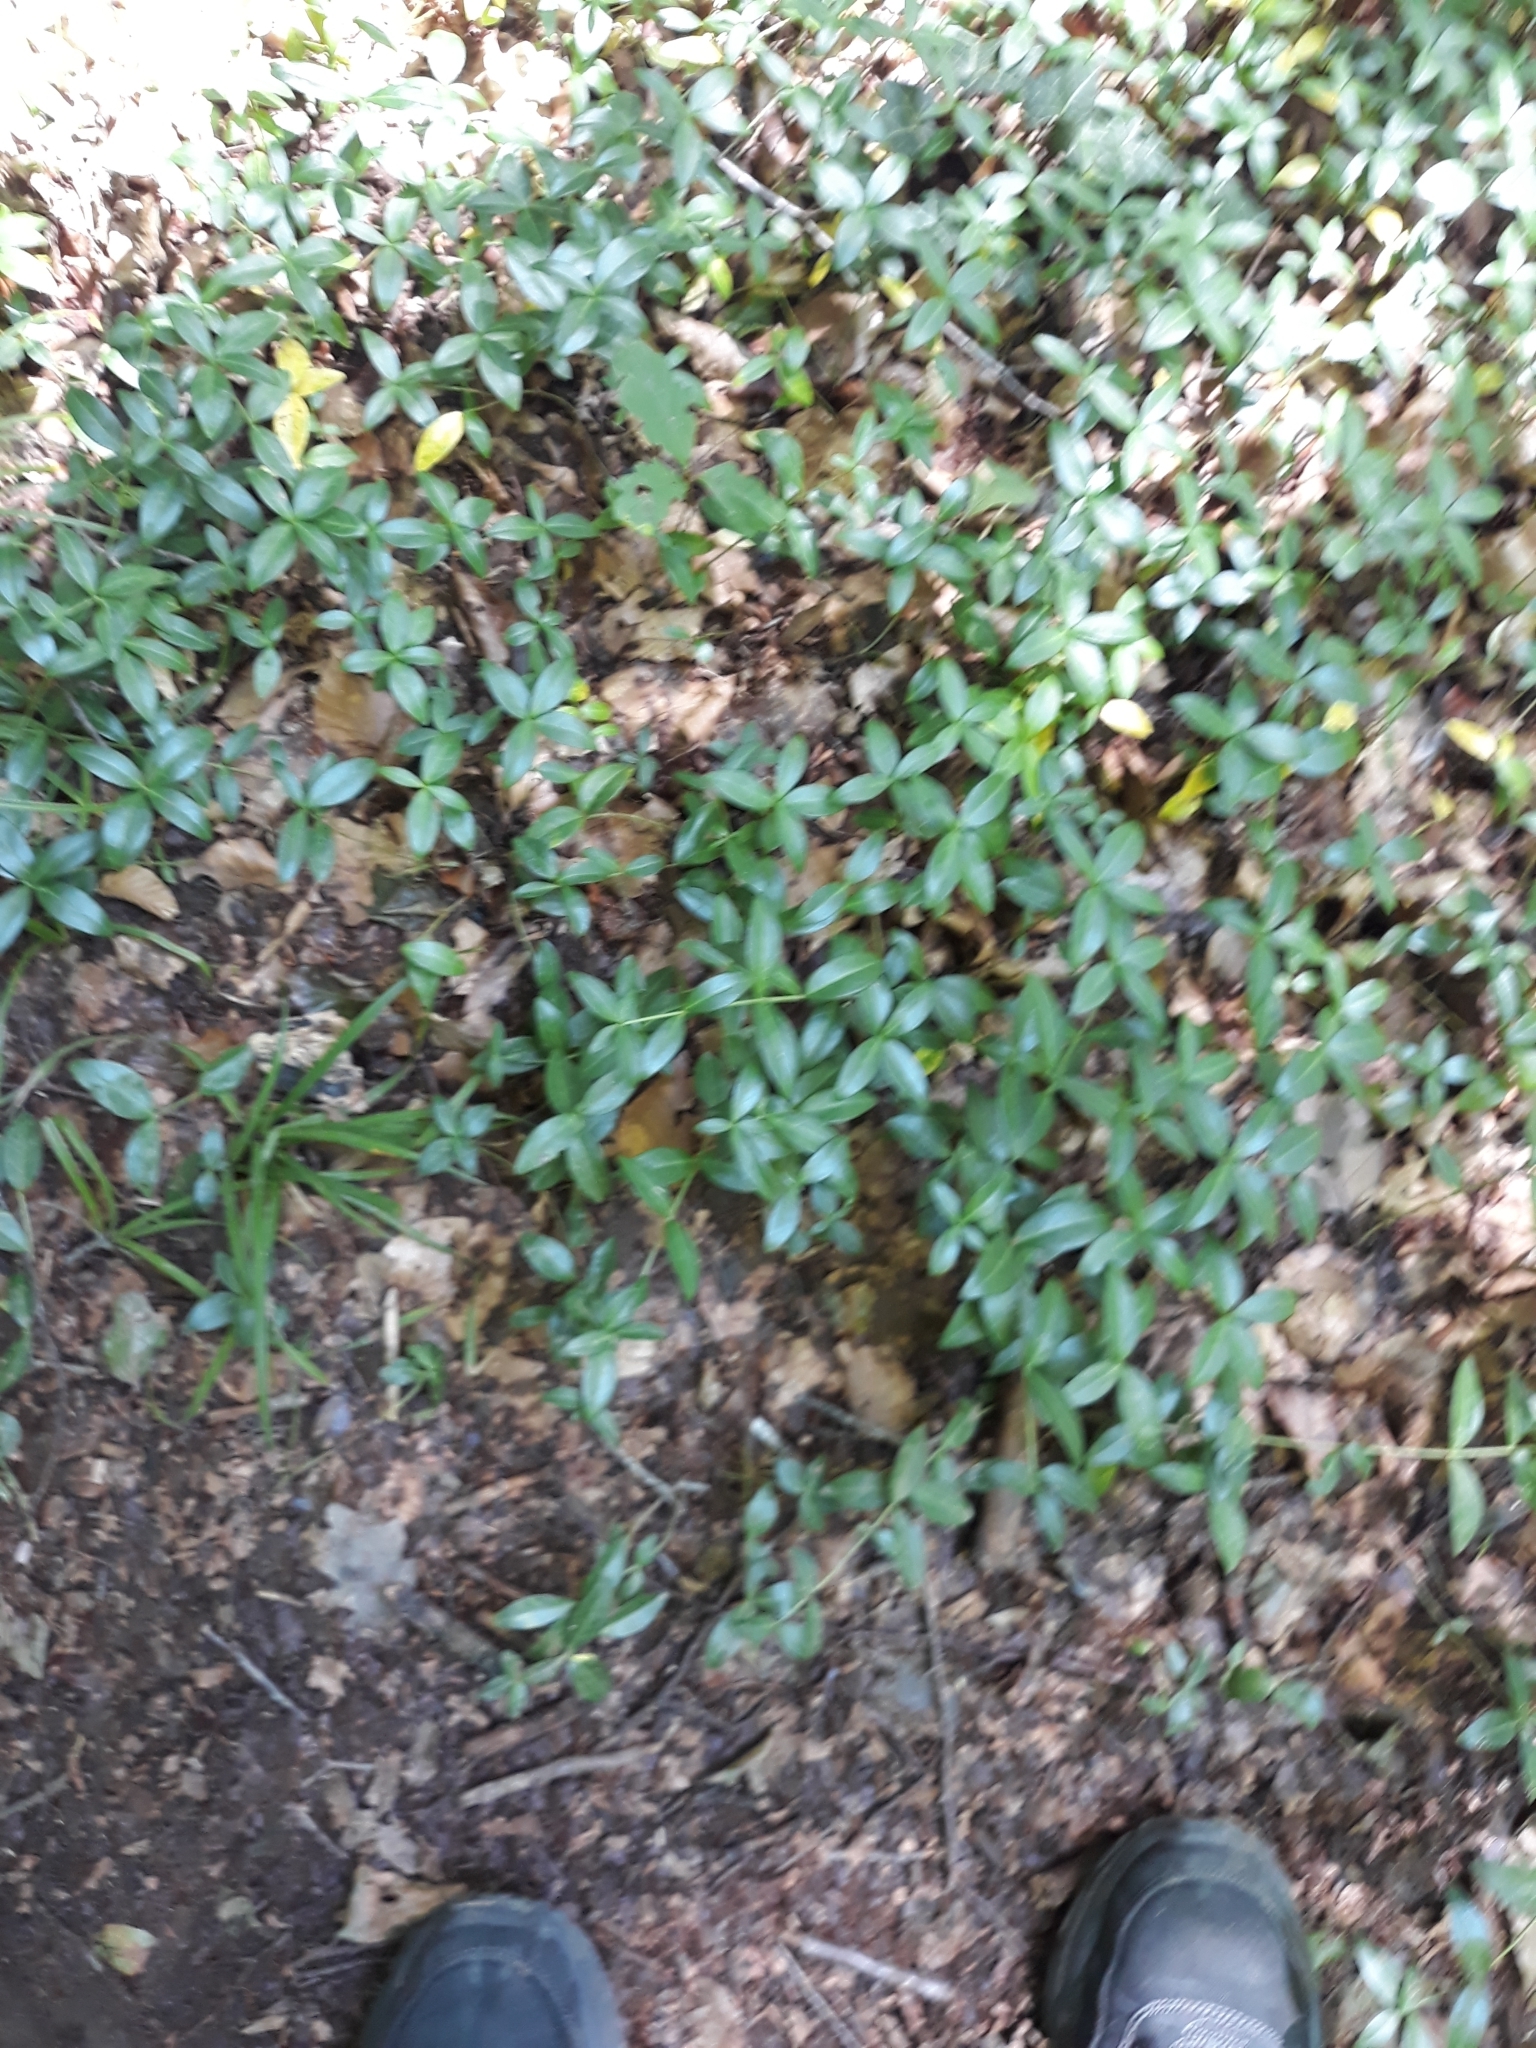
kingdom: Plantae
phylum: Tracheophyta
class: Magnoliopsida
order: Gentianales
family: Apocynaceae
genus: Vinca
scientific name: Vinca minor
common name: Lesser periwinkle
